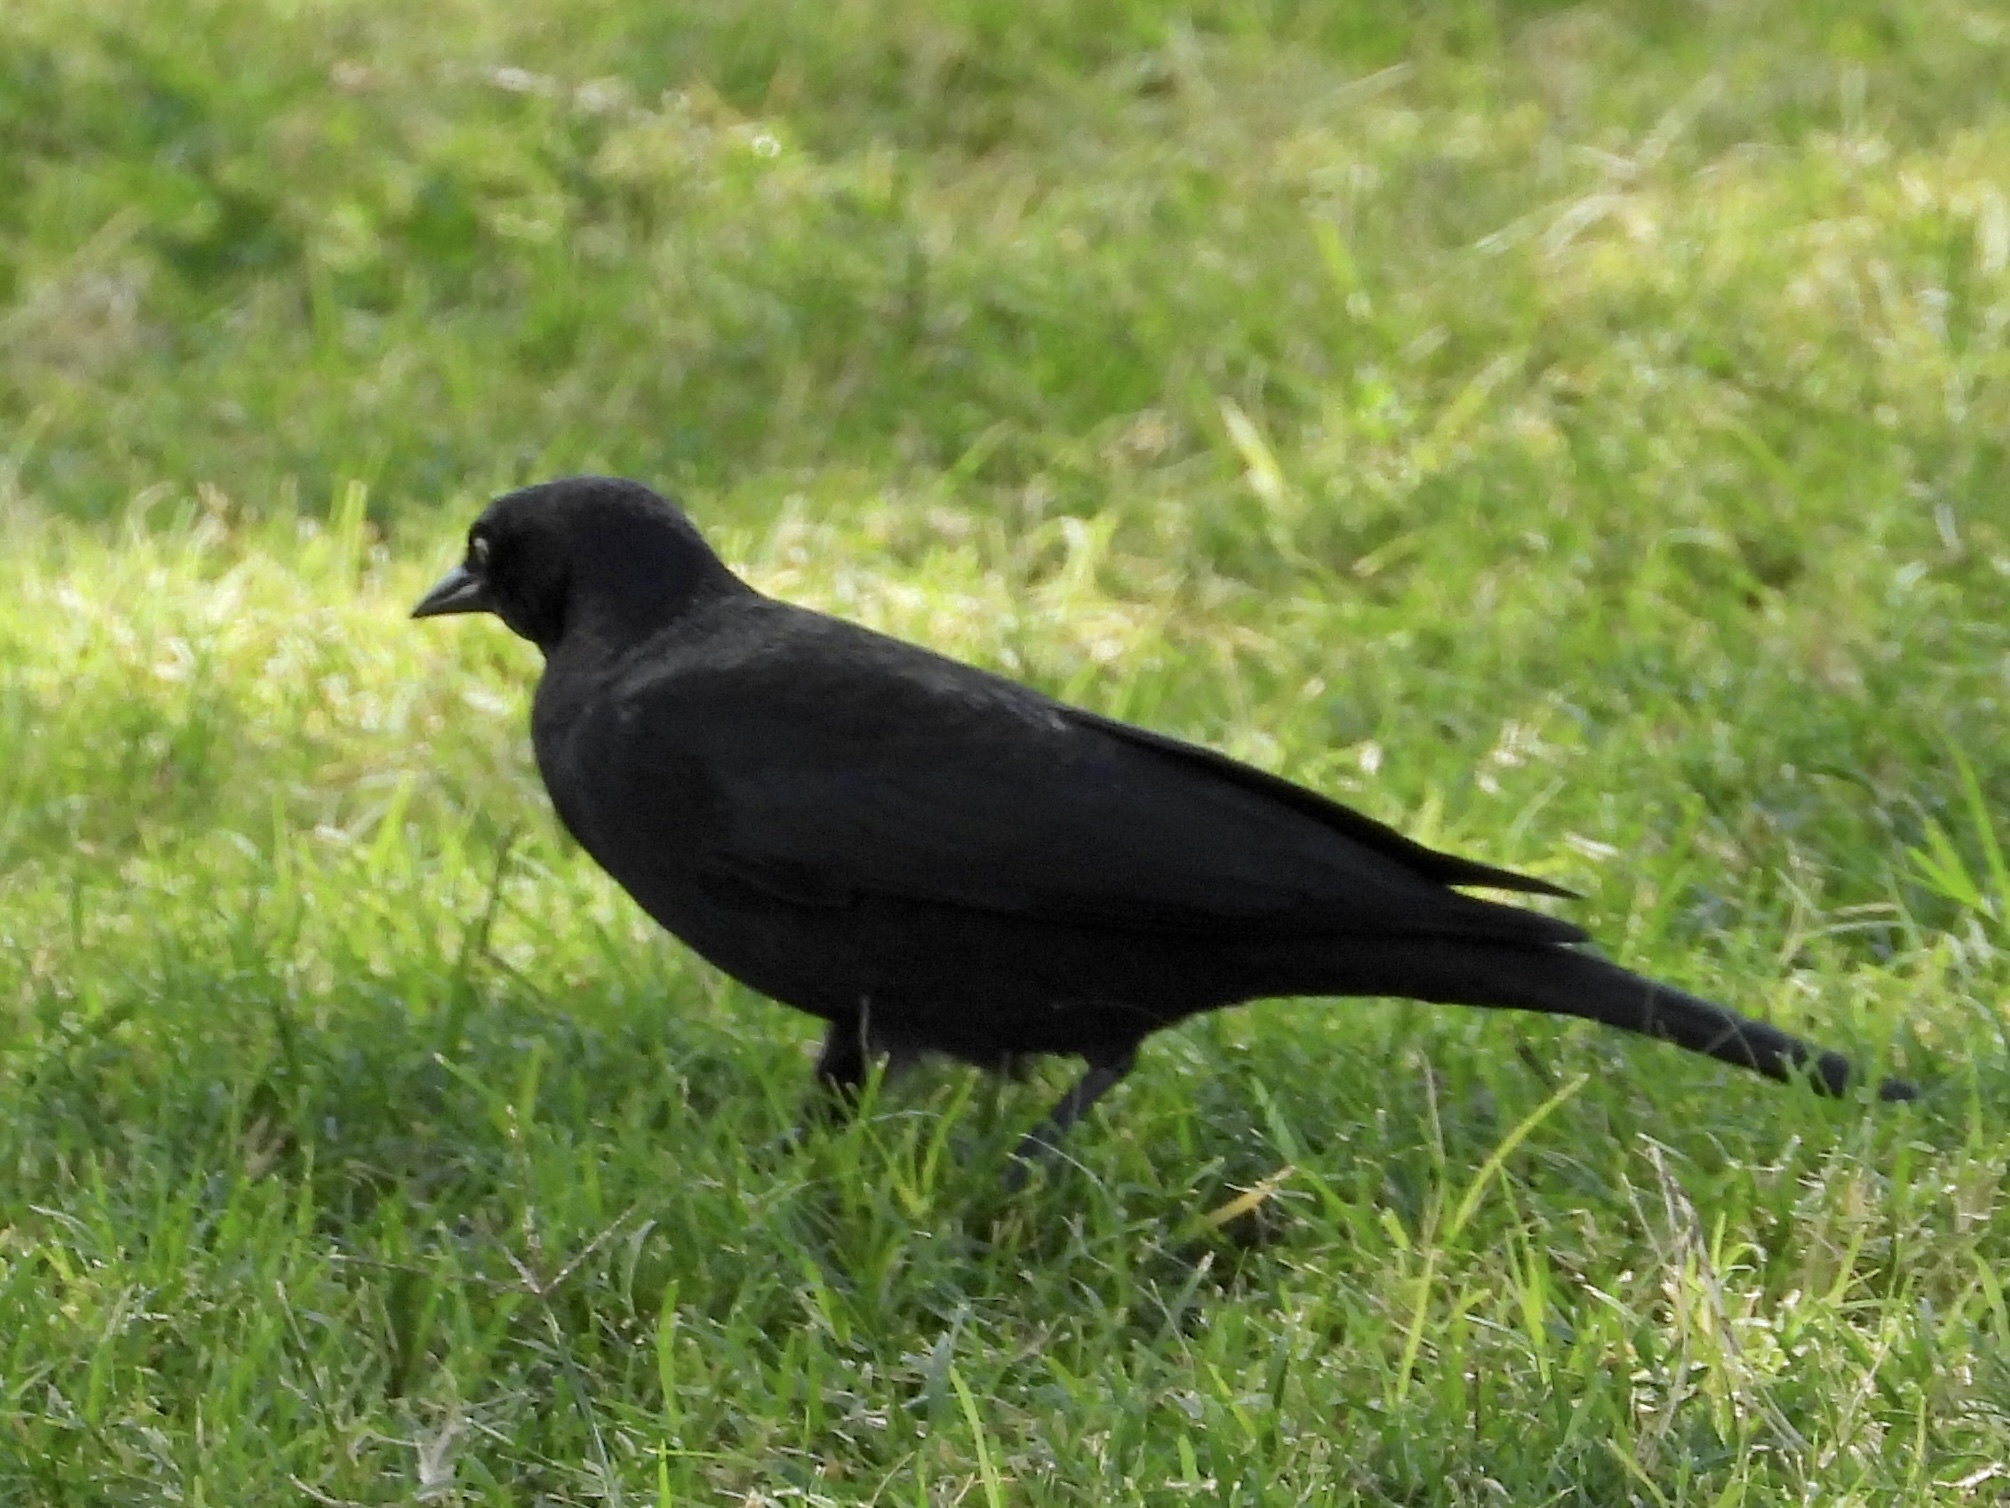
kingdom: Animalia
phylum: Chordata
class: Aves
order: Passeriformes
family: Icteridae
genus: Euphagus
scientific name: Euphagus cyanocephalus
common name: Brewer's blackbird
